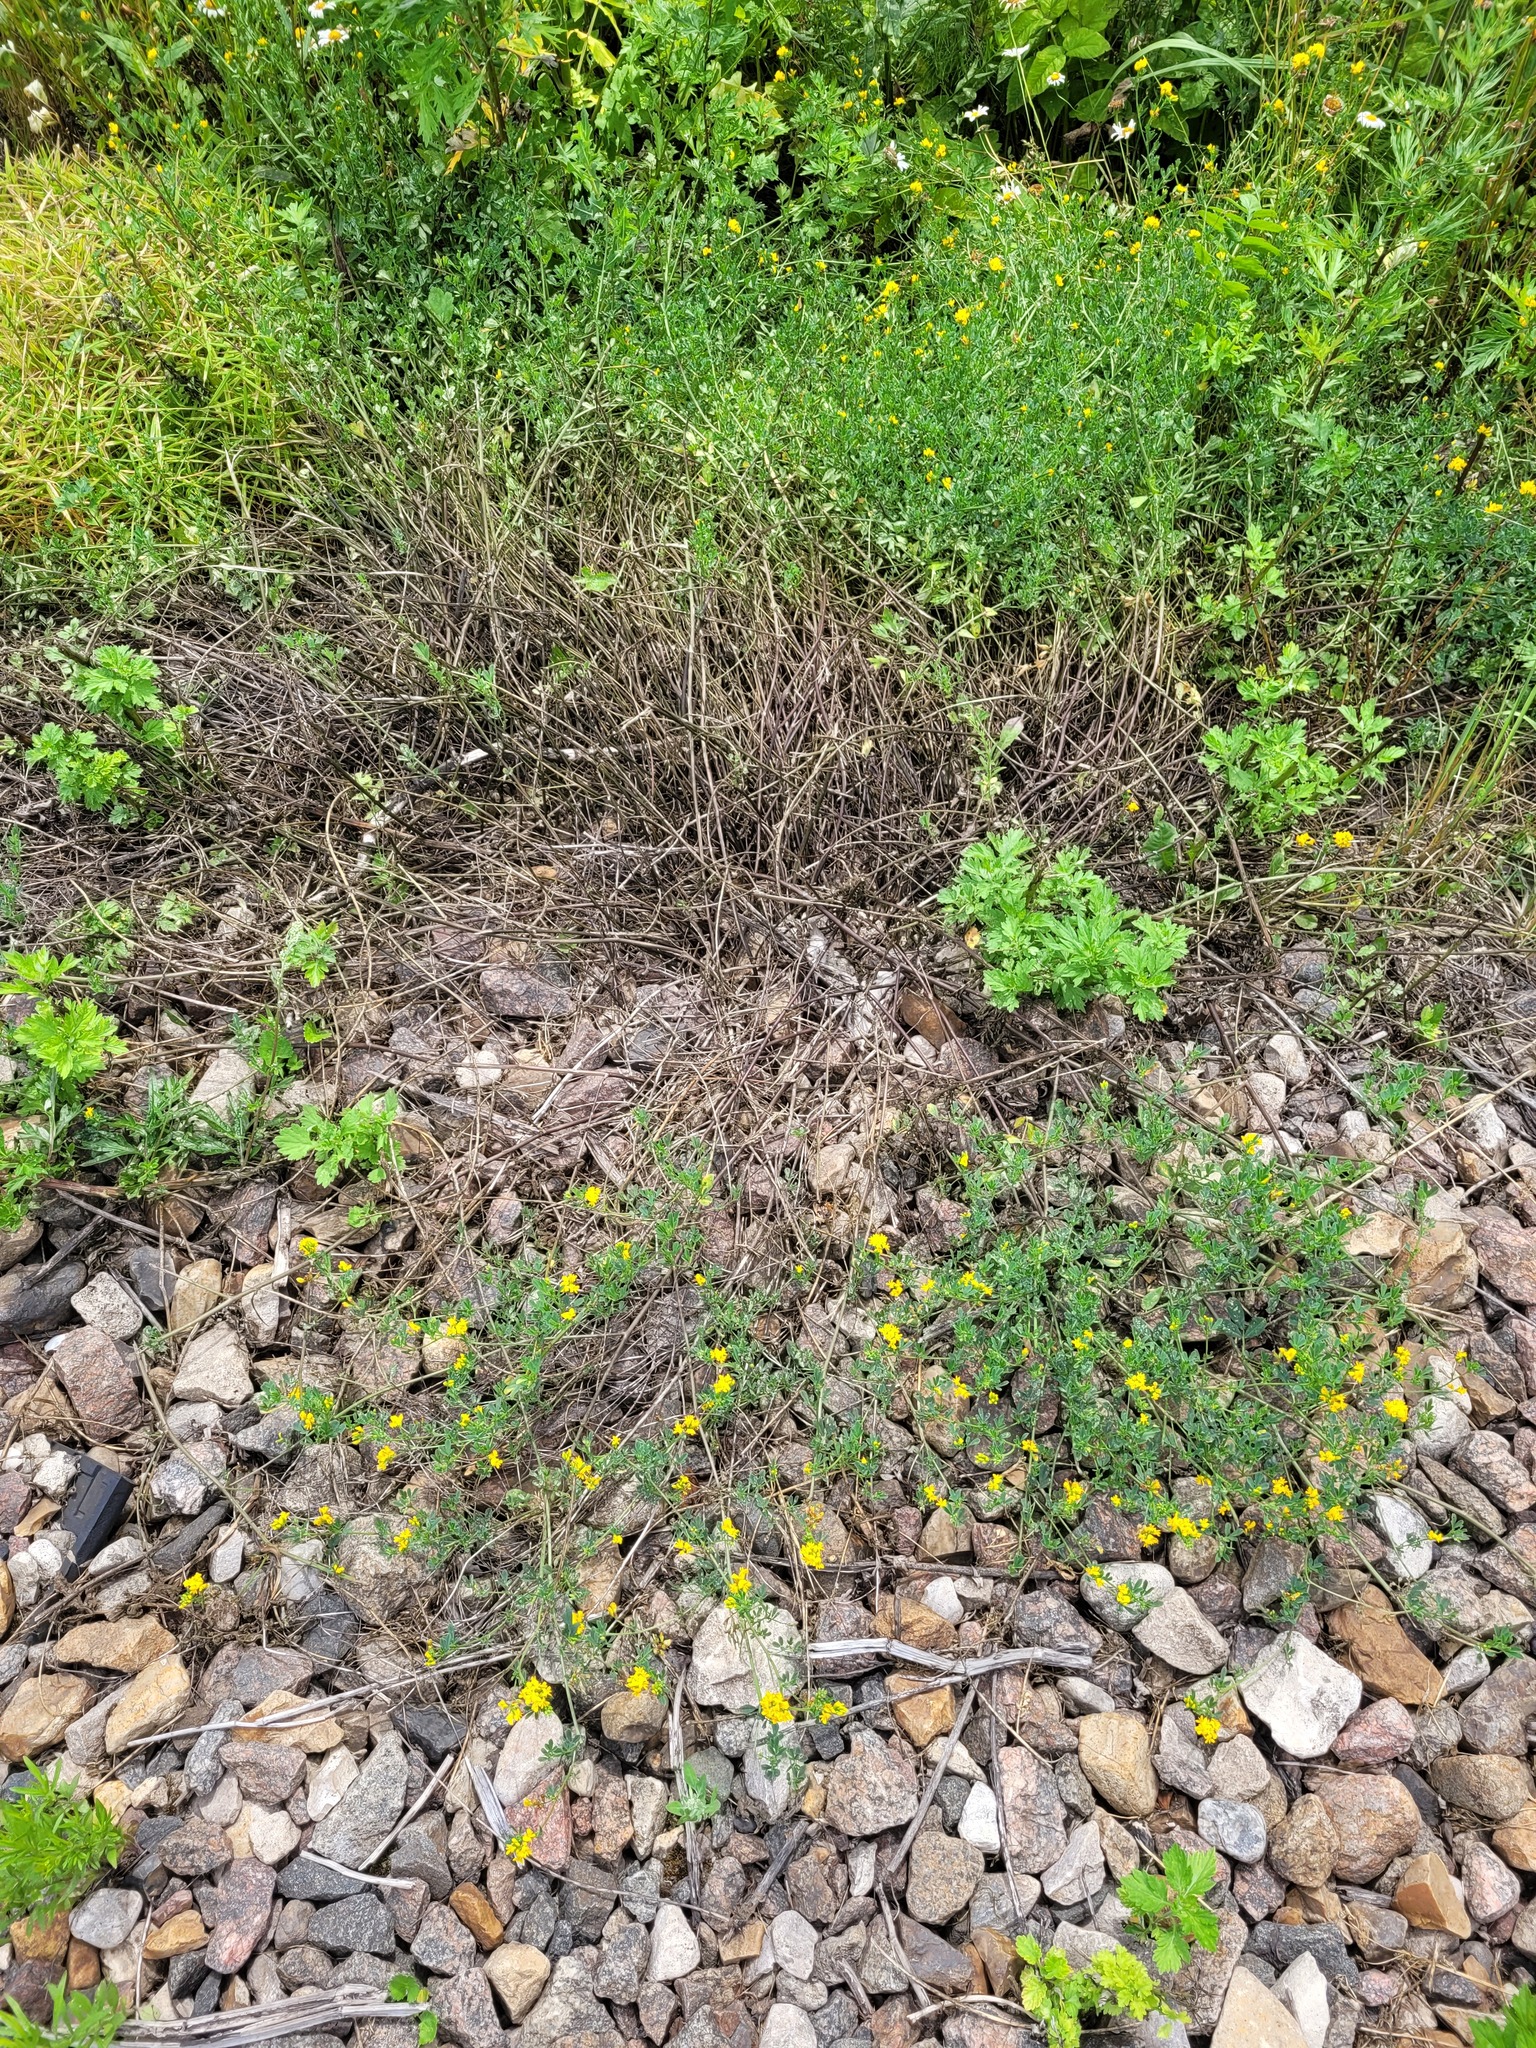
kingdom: Plantae
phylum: Tracheophyta
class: Magnoliopsida
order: Fabales
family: Fabaceae
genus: Medicago
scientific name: Medicago falcata
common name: Sickle medick
